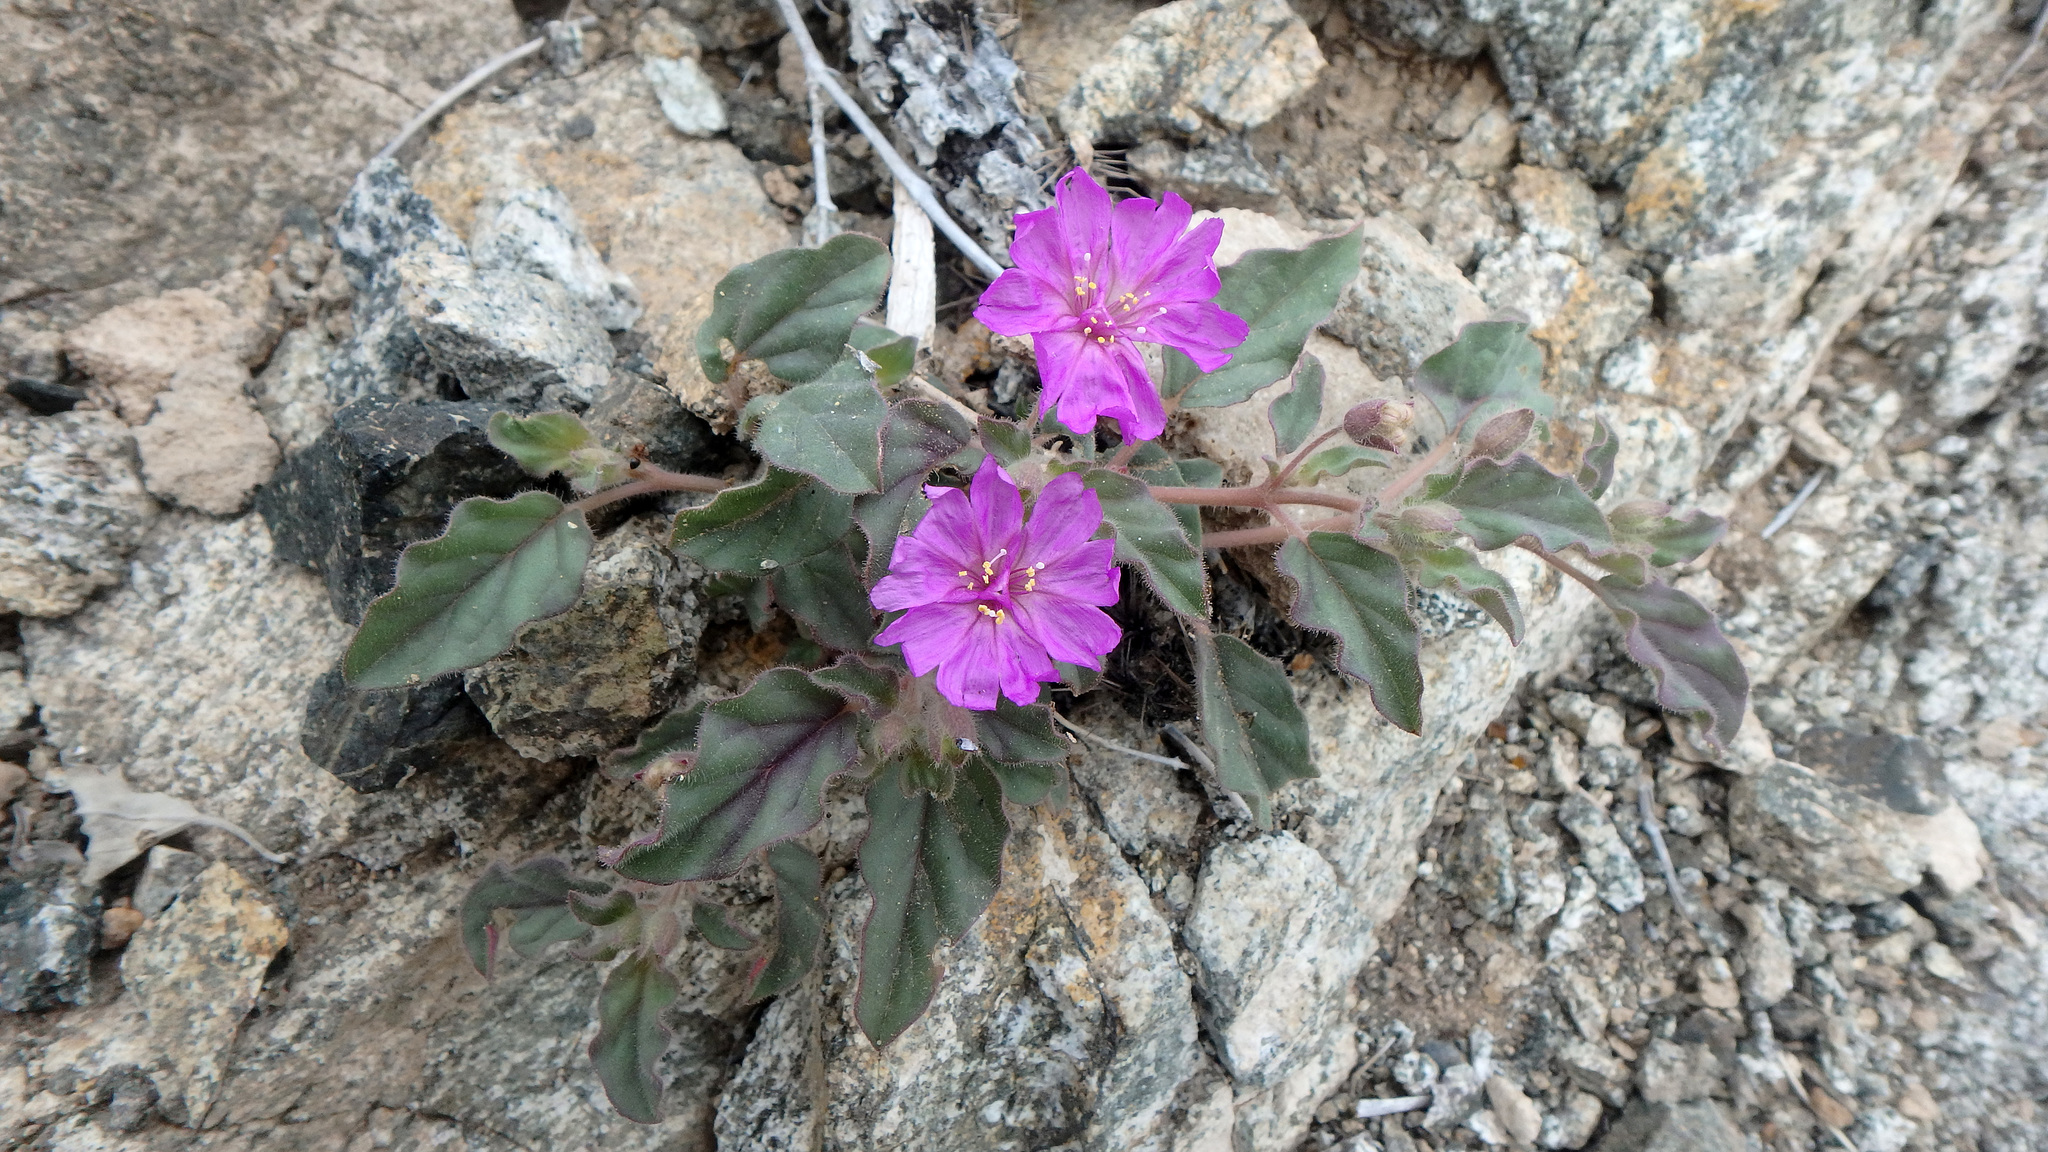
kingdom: Plantae
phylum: Tracheophyta
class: Magnoliopsida
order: Caryophyllales
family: Nyctaginaceae
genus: Allionia
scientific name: Allionia incarnata
